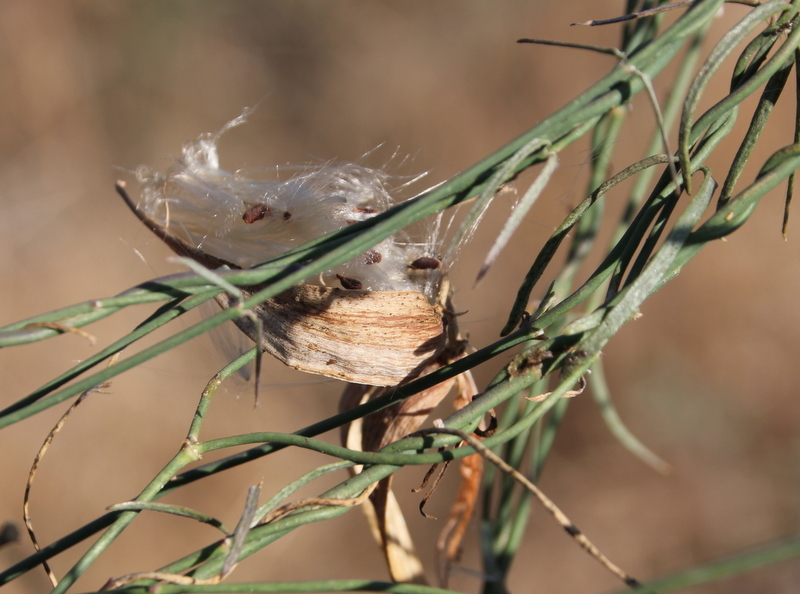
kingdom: Plantae
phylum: Tracheophyta
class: Magnoliopsida
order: Gentianales
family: Apocynaceae
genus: Funastrum
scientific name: Funastrum heterophyllum
